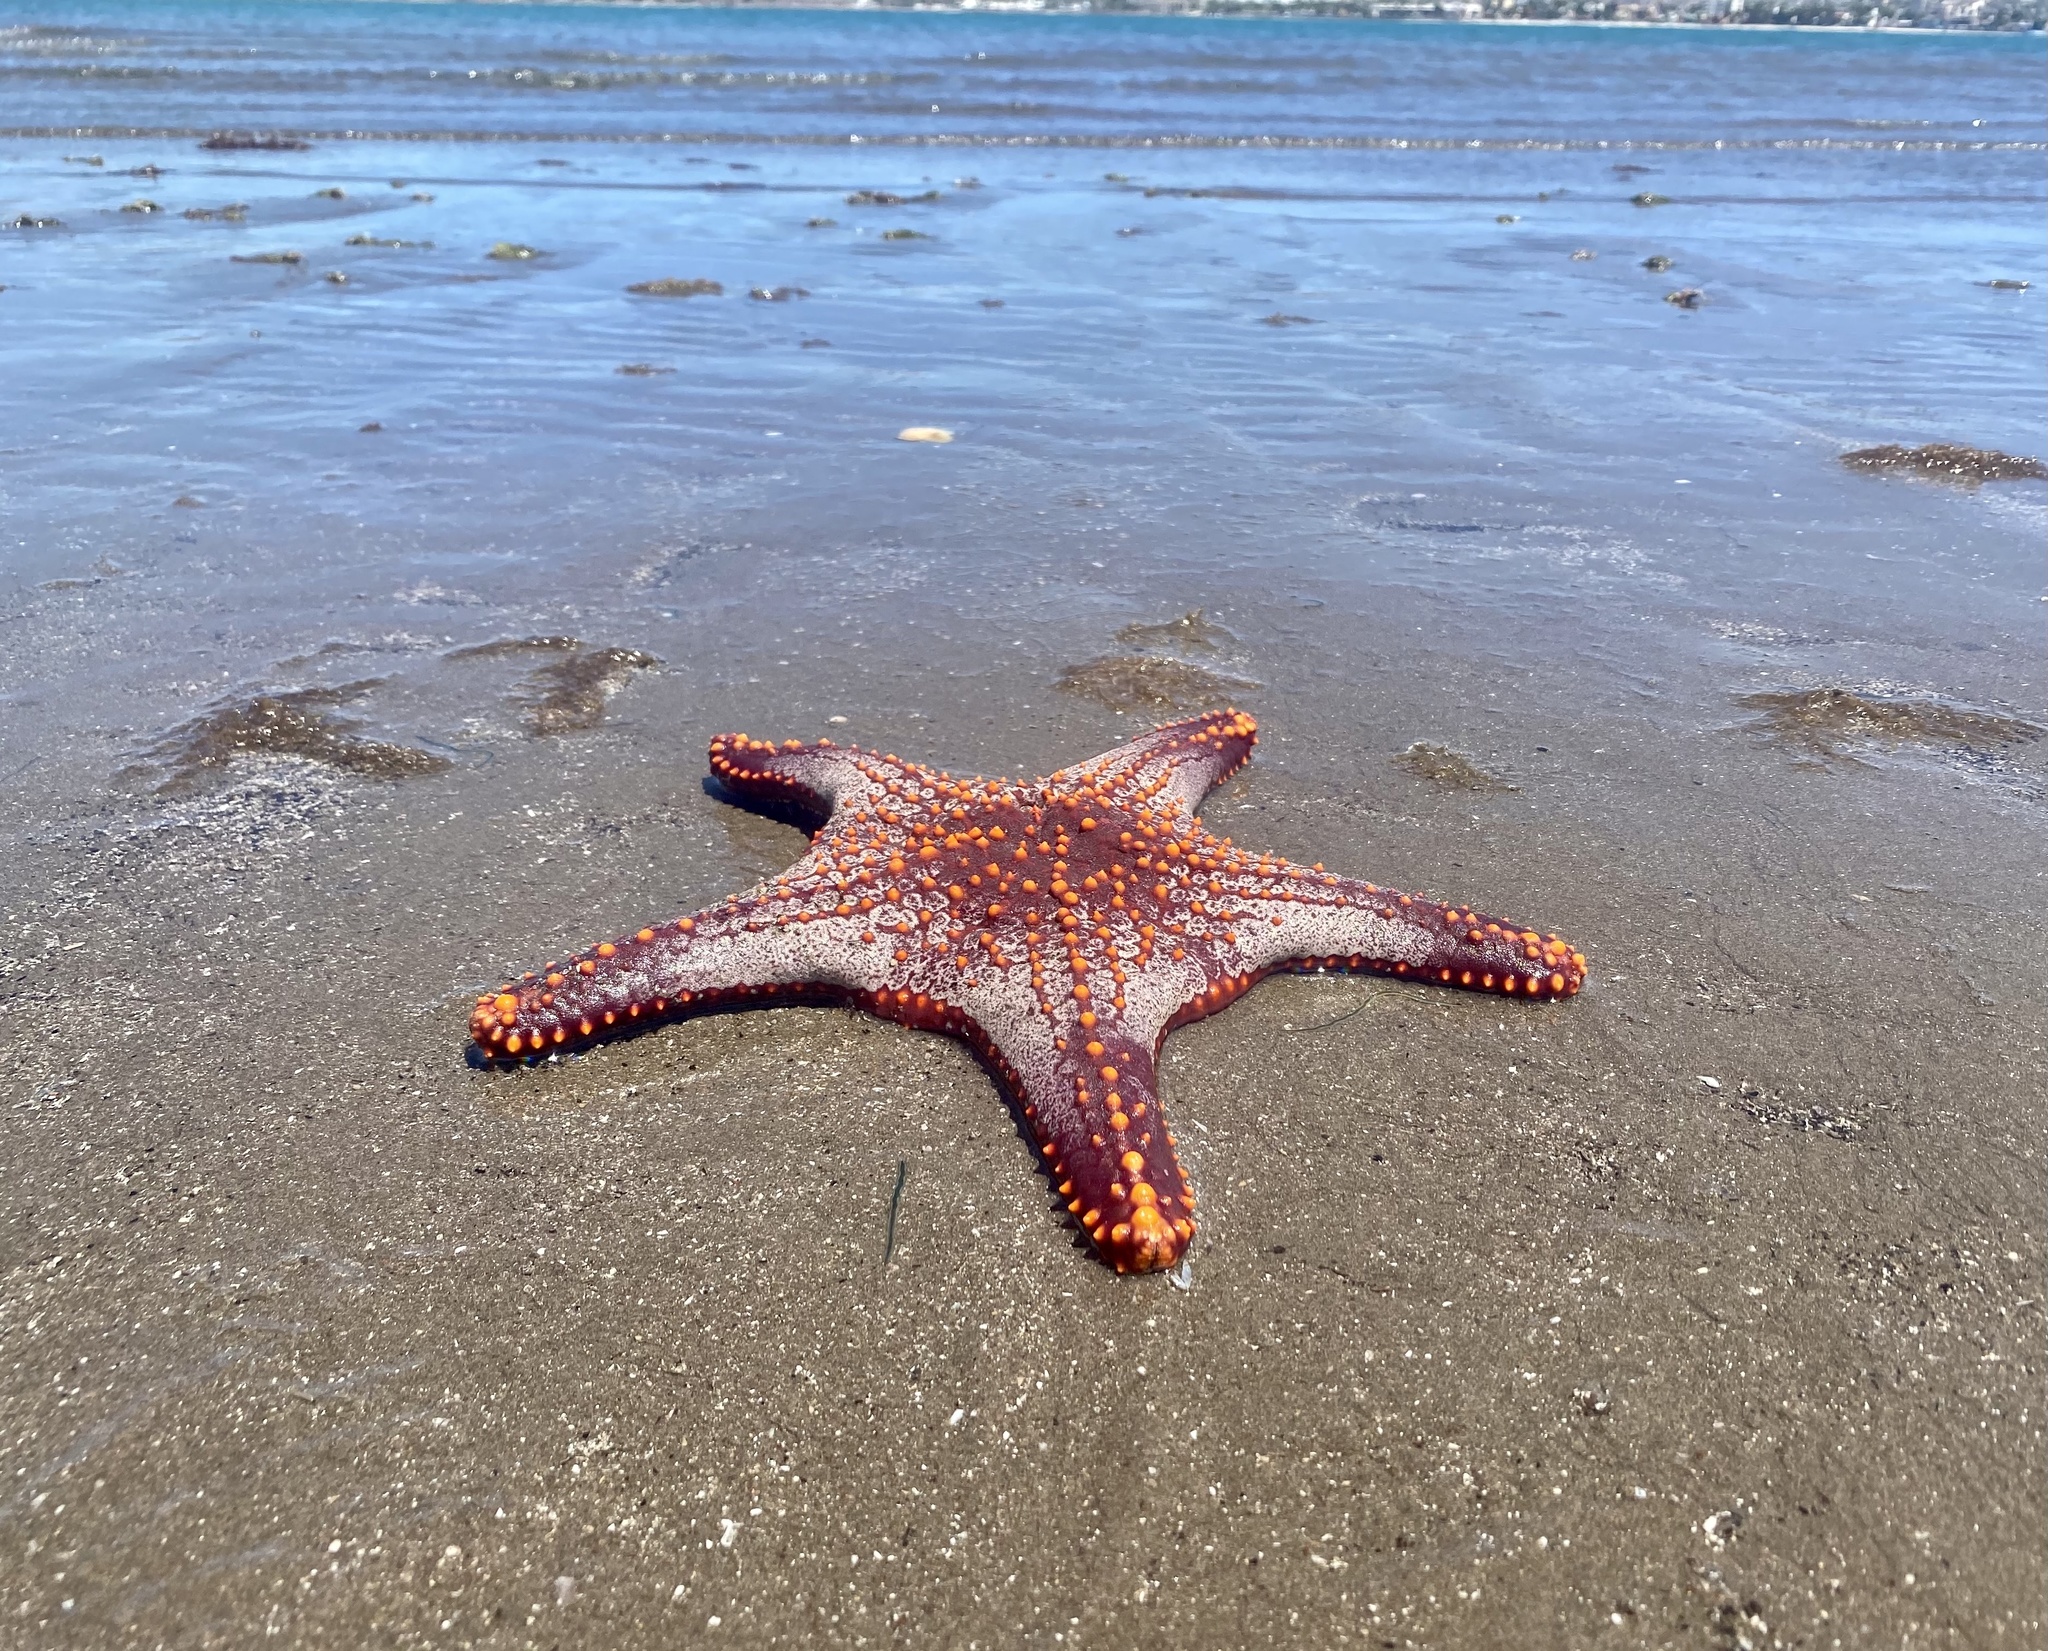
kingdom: Animalia
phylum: Echinodermata
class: Asteroidea
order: Valvatida
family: Oreasteridae
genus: Pentaceraster
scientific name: Pentaceraster cumingi
